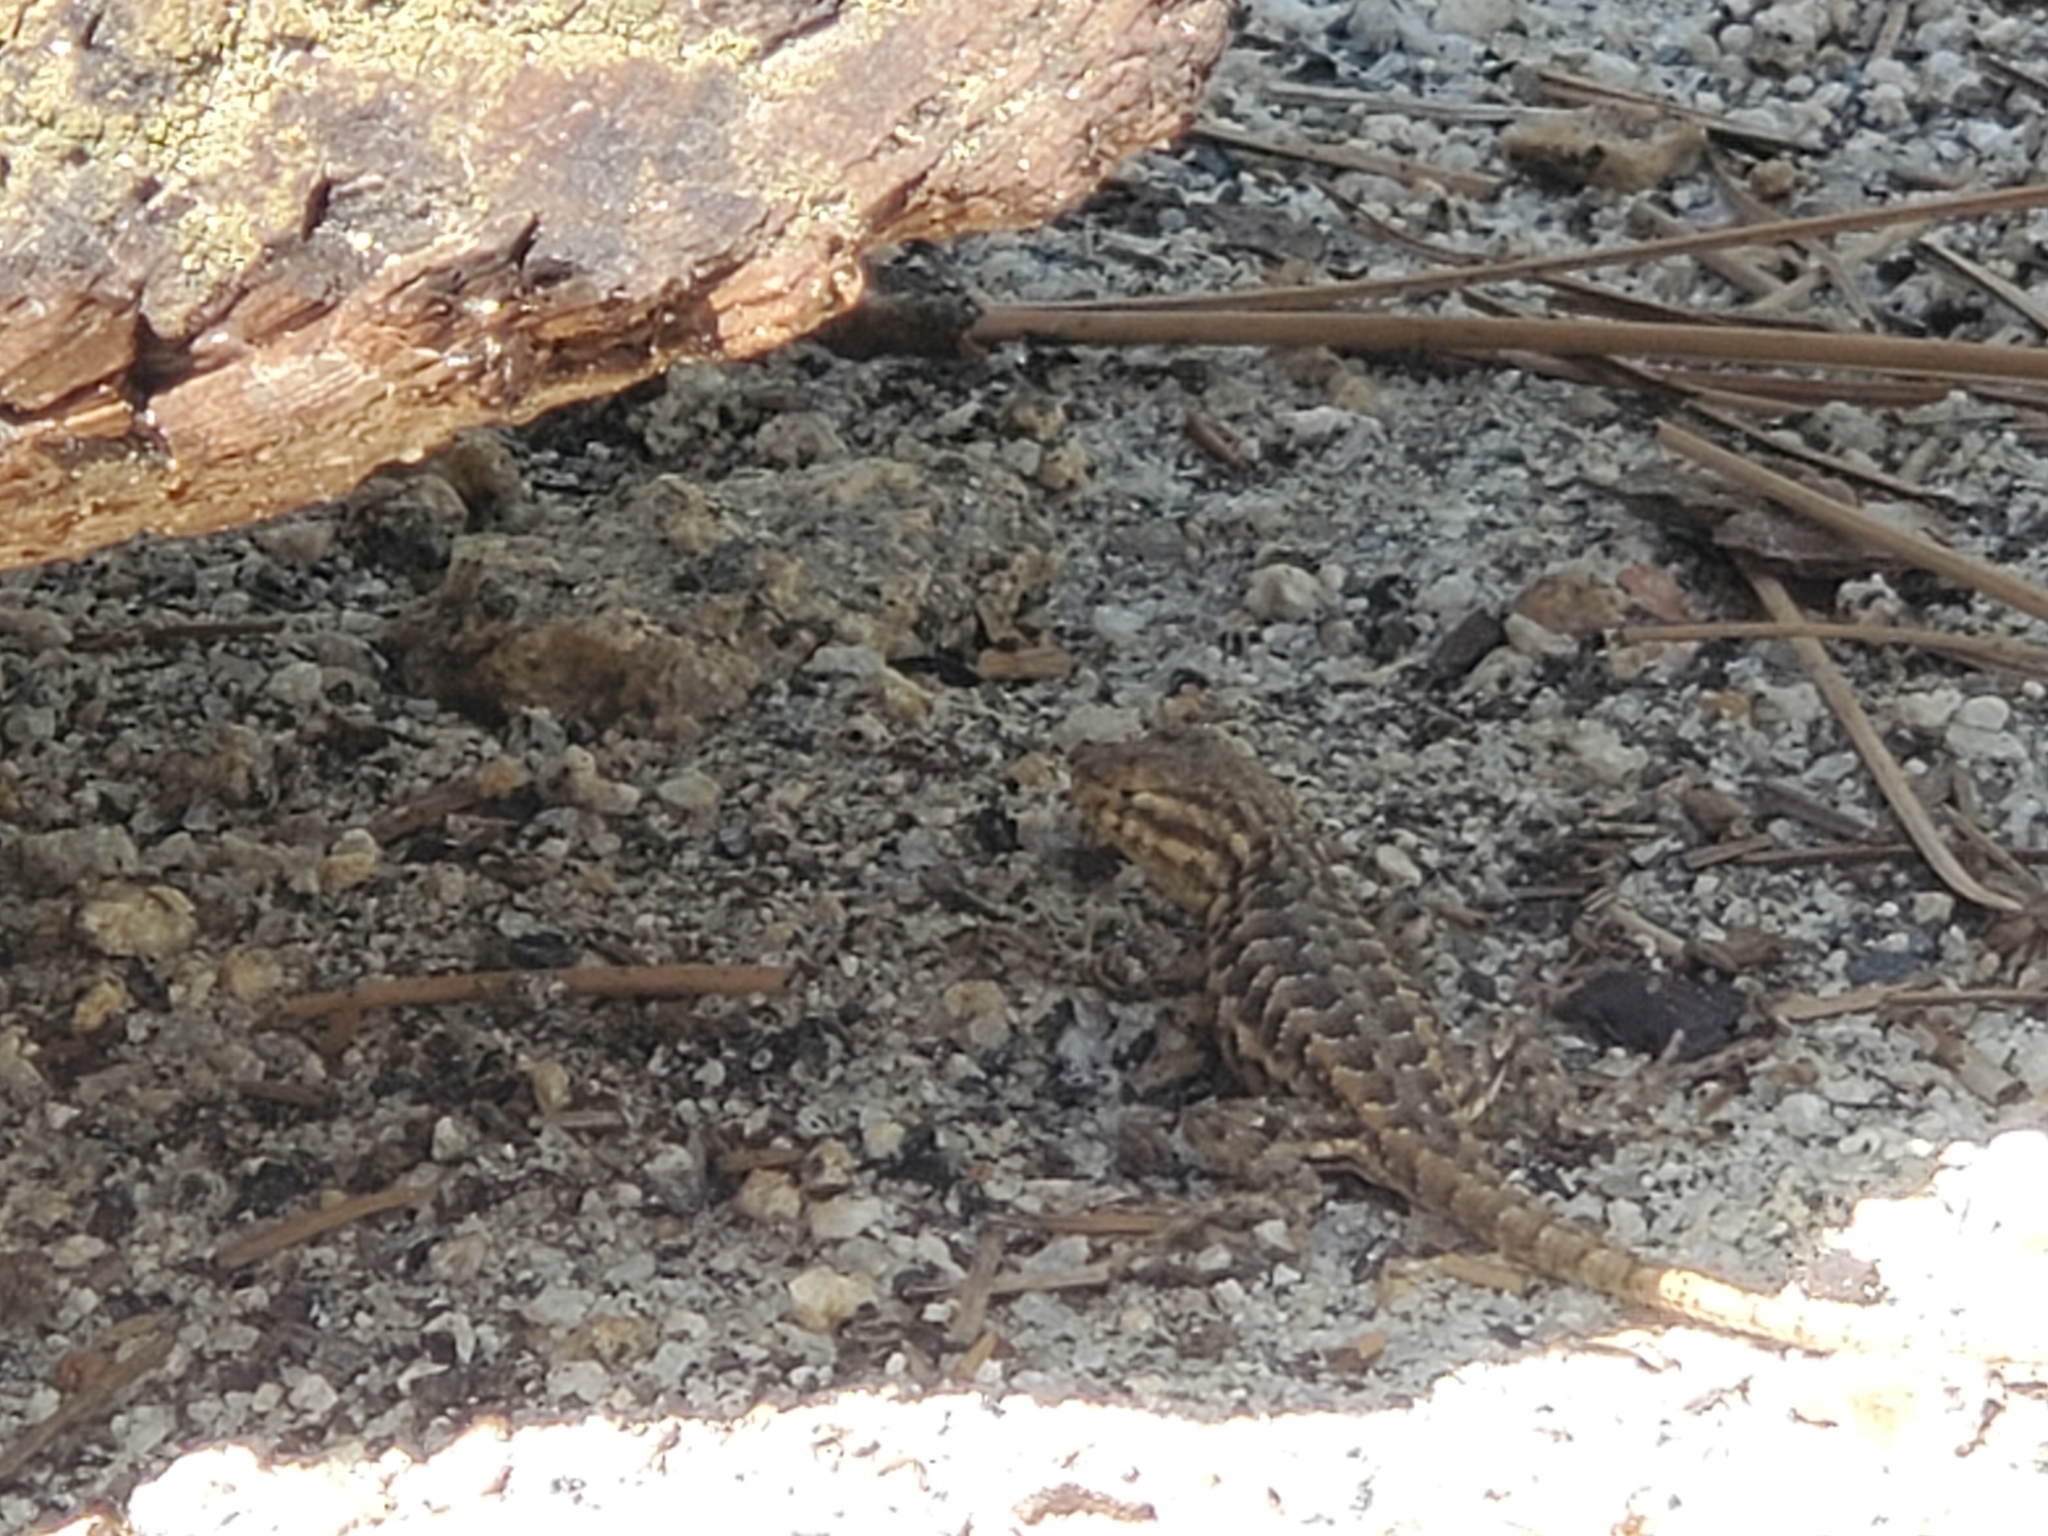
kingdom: Animalia
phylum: Chordata
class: Squamata
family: Phrynosomatidae
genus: Sceloporus
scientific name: Sceloporus graciosus
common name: Sagebrush lizard
